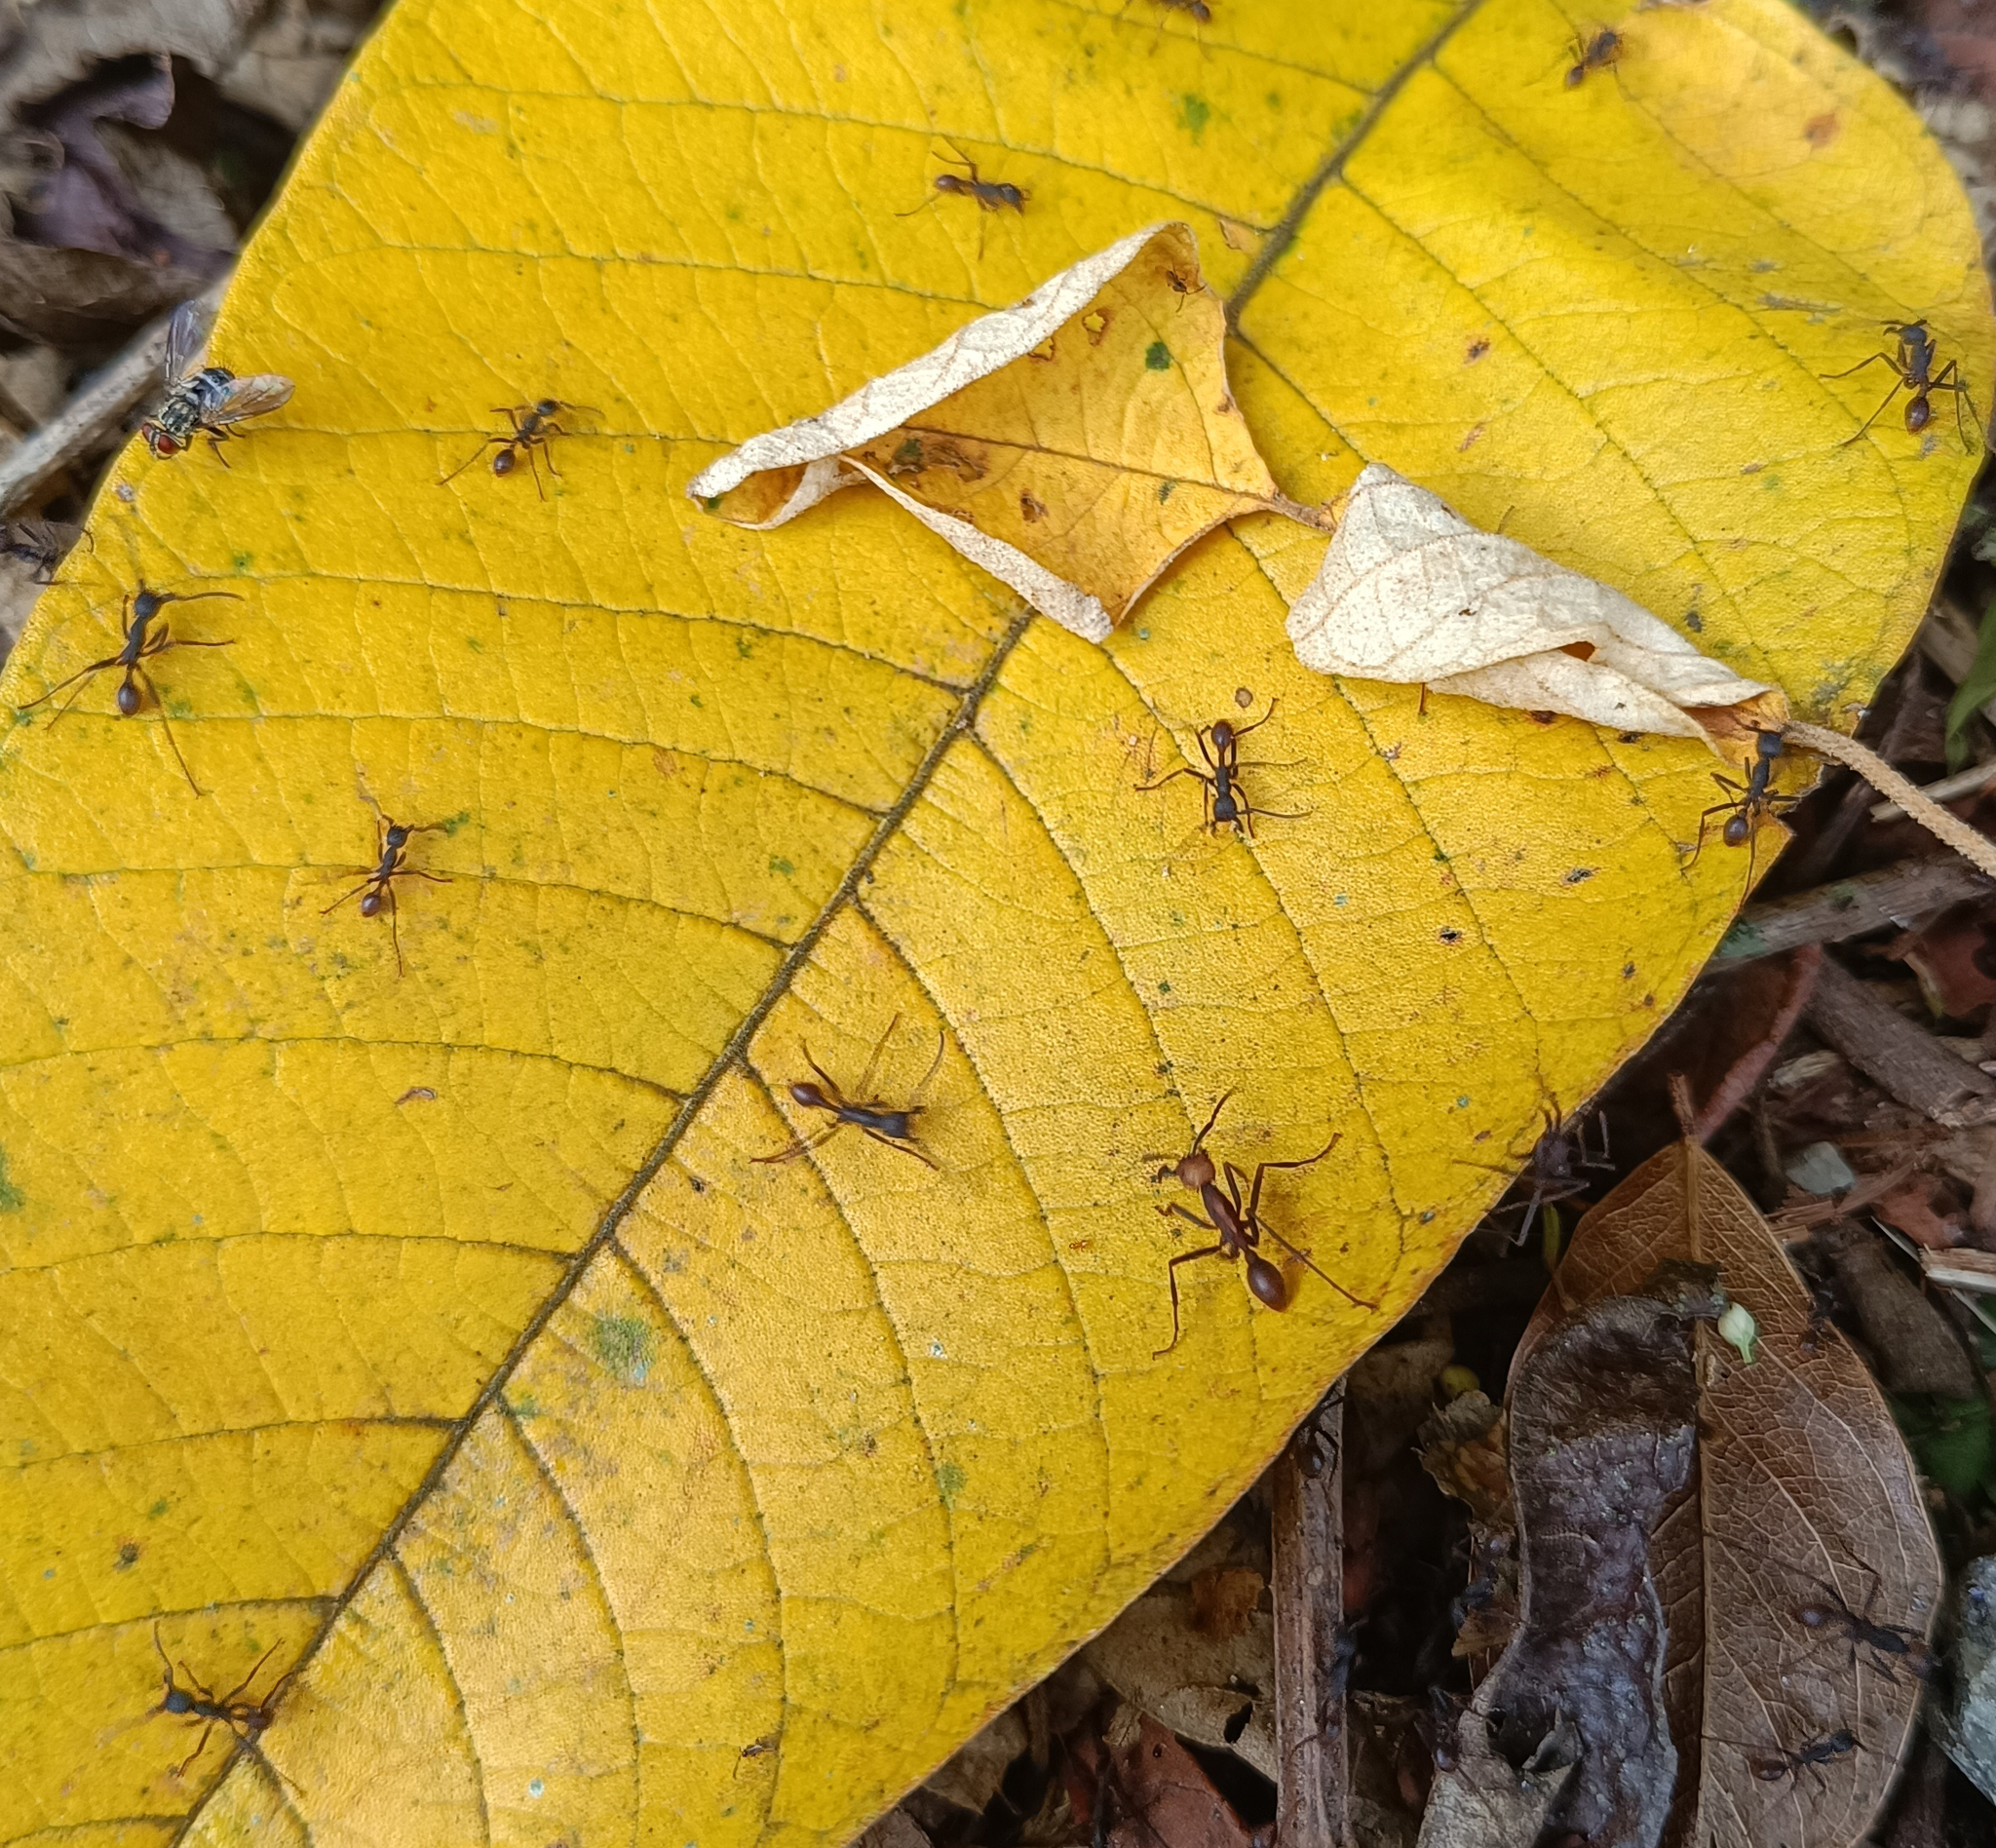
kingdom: Animalia
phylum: Arthropoda
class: Insecta
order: Hymenoptera
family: Formicidae
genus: Eciton
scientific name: Eciton burchellii
